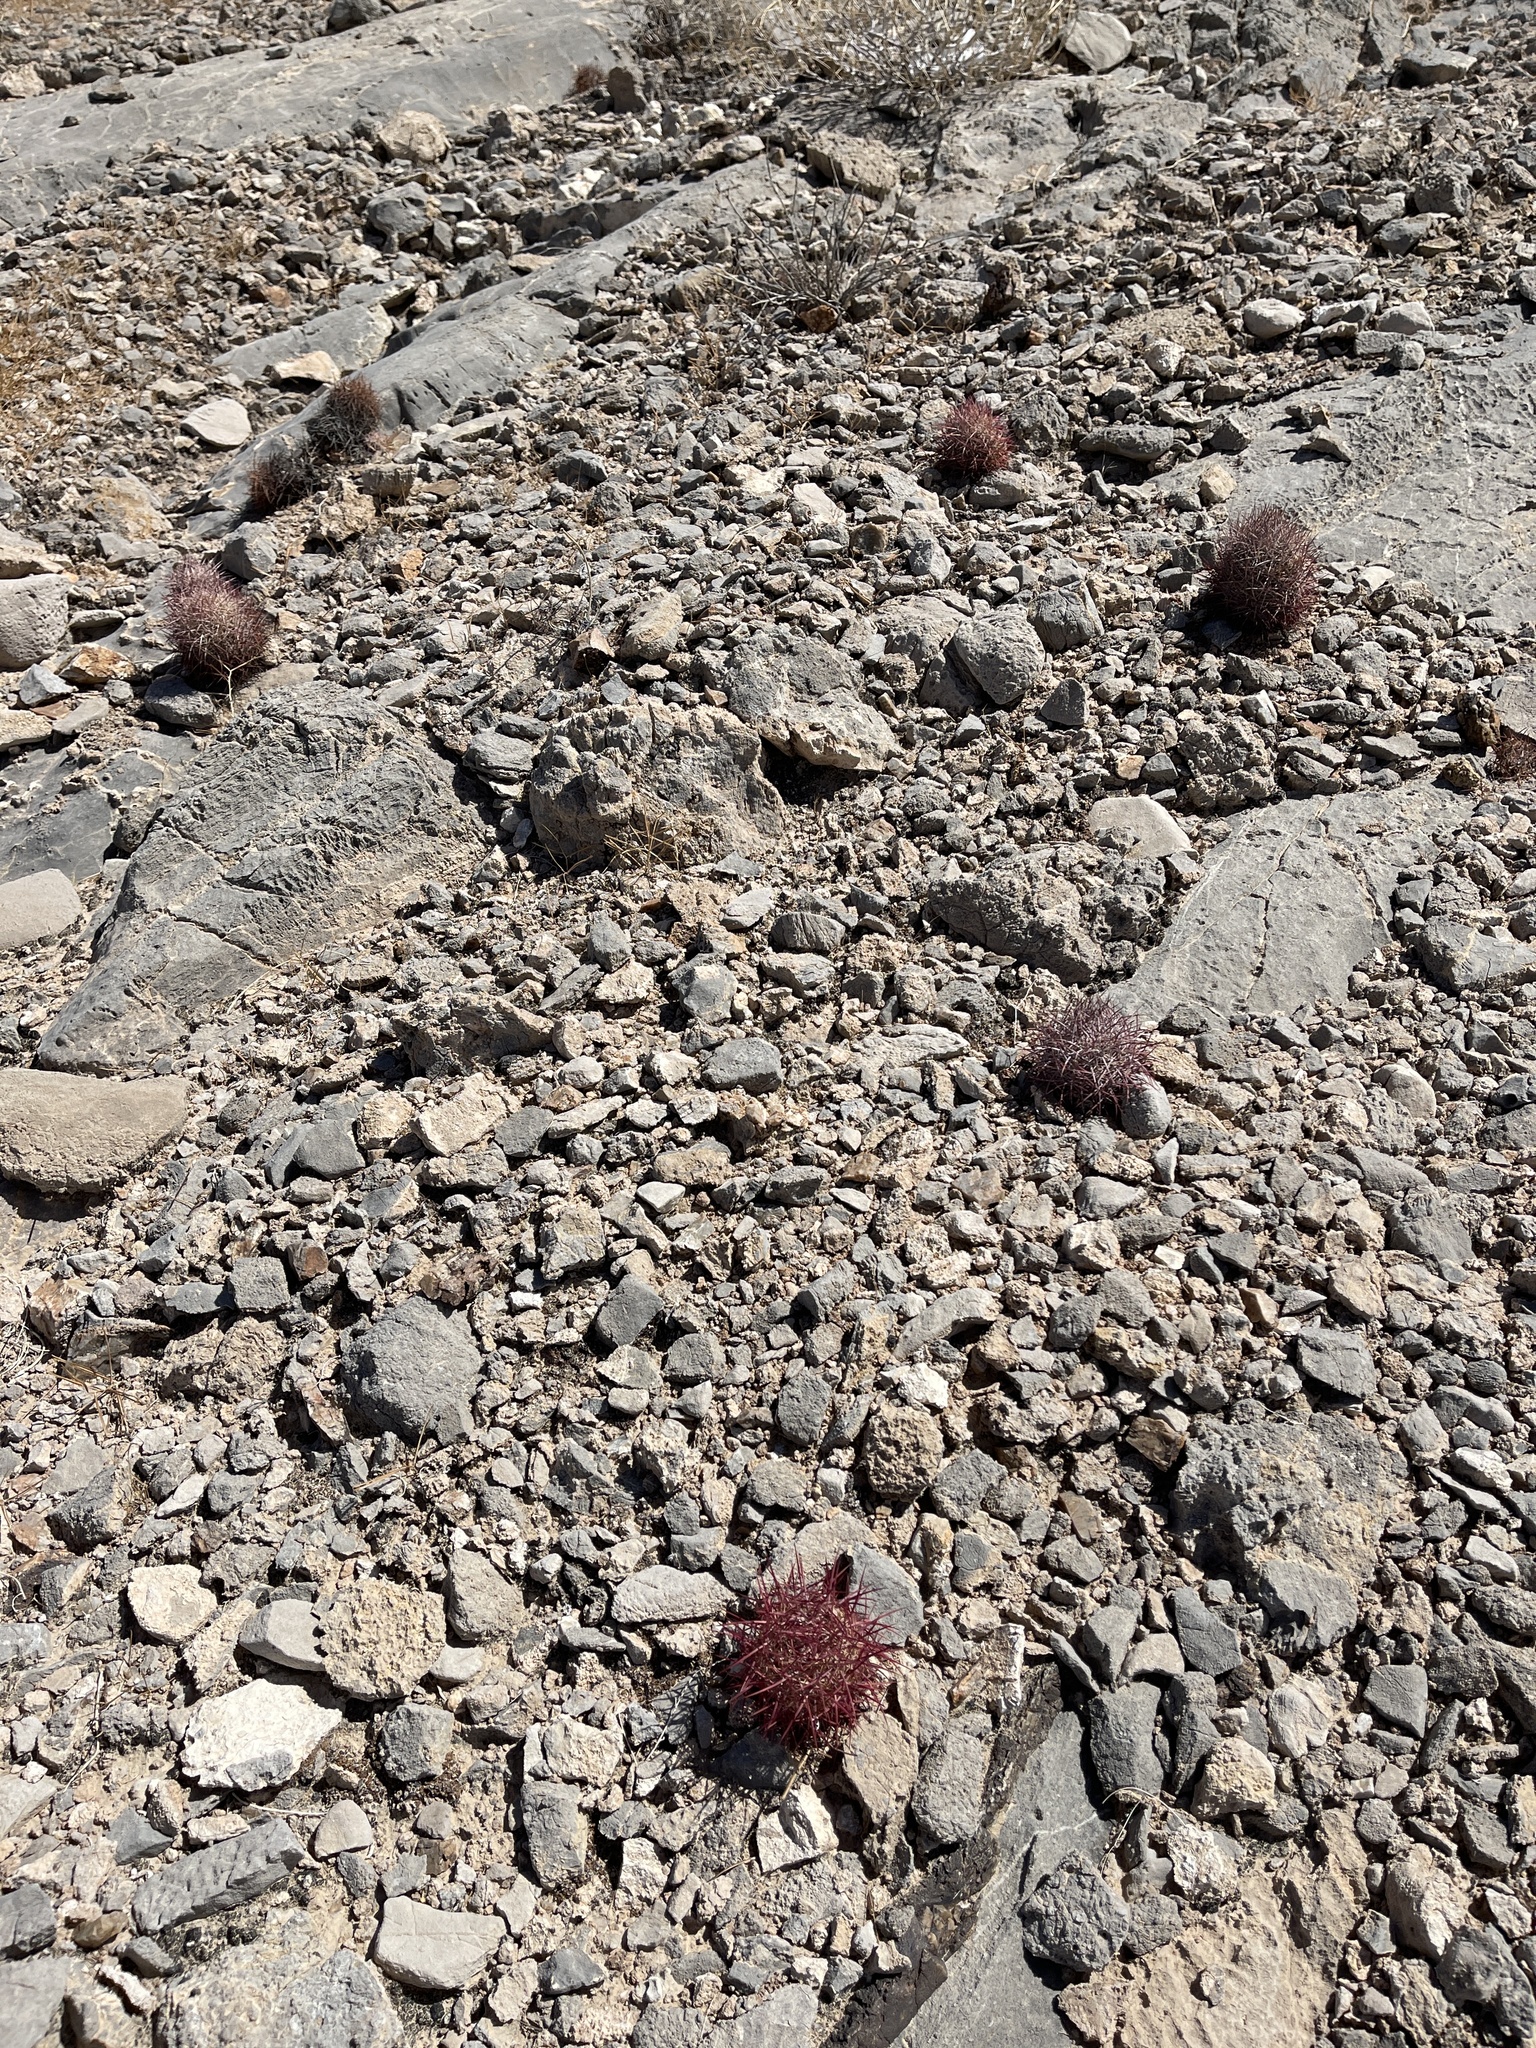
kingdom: Plantae
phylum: Tracheophyta
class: Magnoliopsida
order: Caryophyllales
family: Cactaceae
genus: Sclerocactus
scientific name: Sclerocactus johnsonii
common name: Eight-spine fishhook cactus
